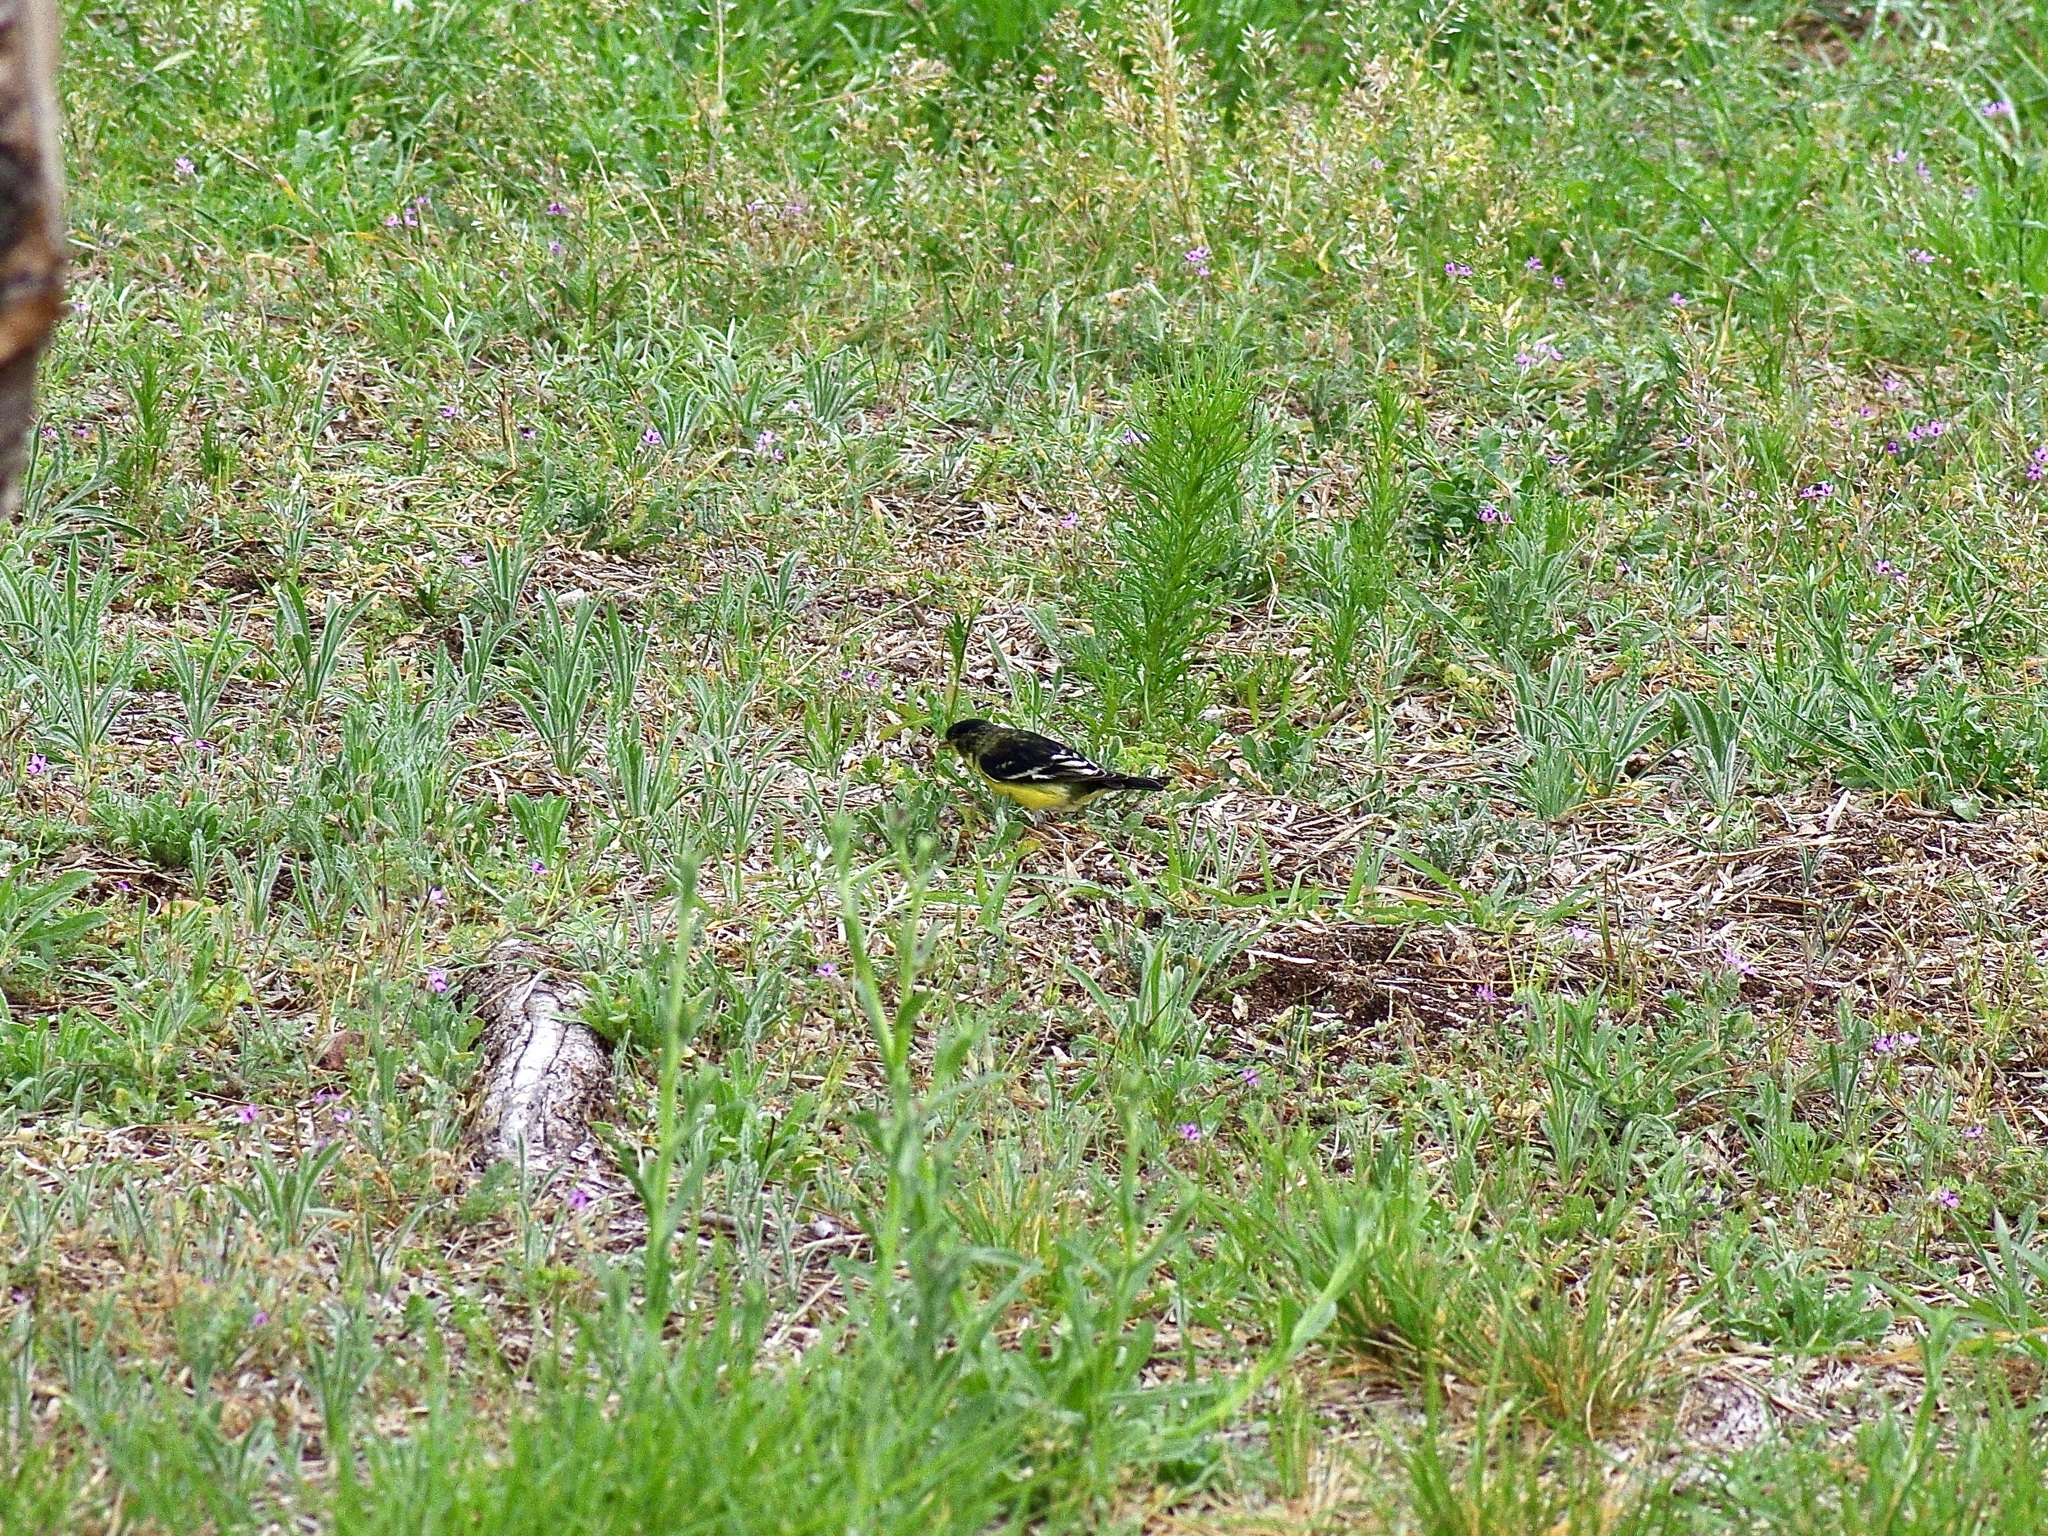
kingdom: Animalia
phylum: Chordata
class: Aves
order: Passeriformes
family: Fringillidae
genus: Spinus
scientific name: Spinus psaltria
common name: Lesser goldfinch
